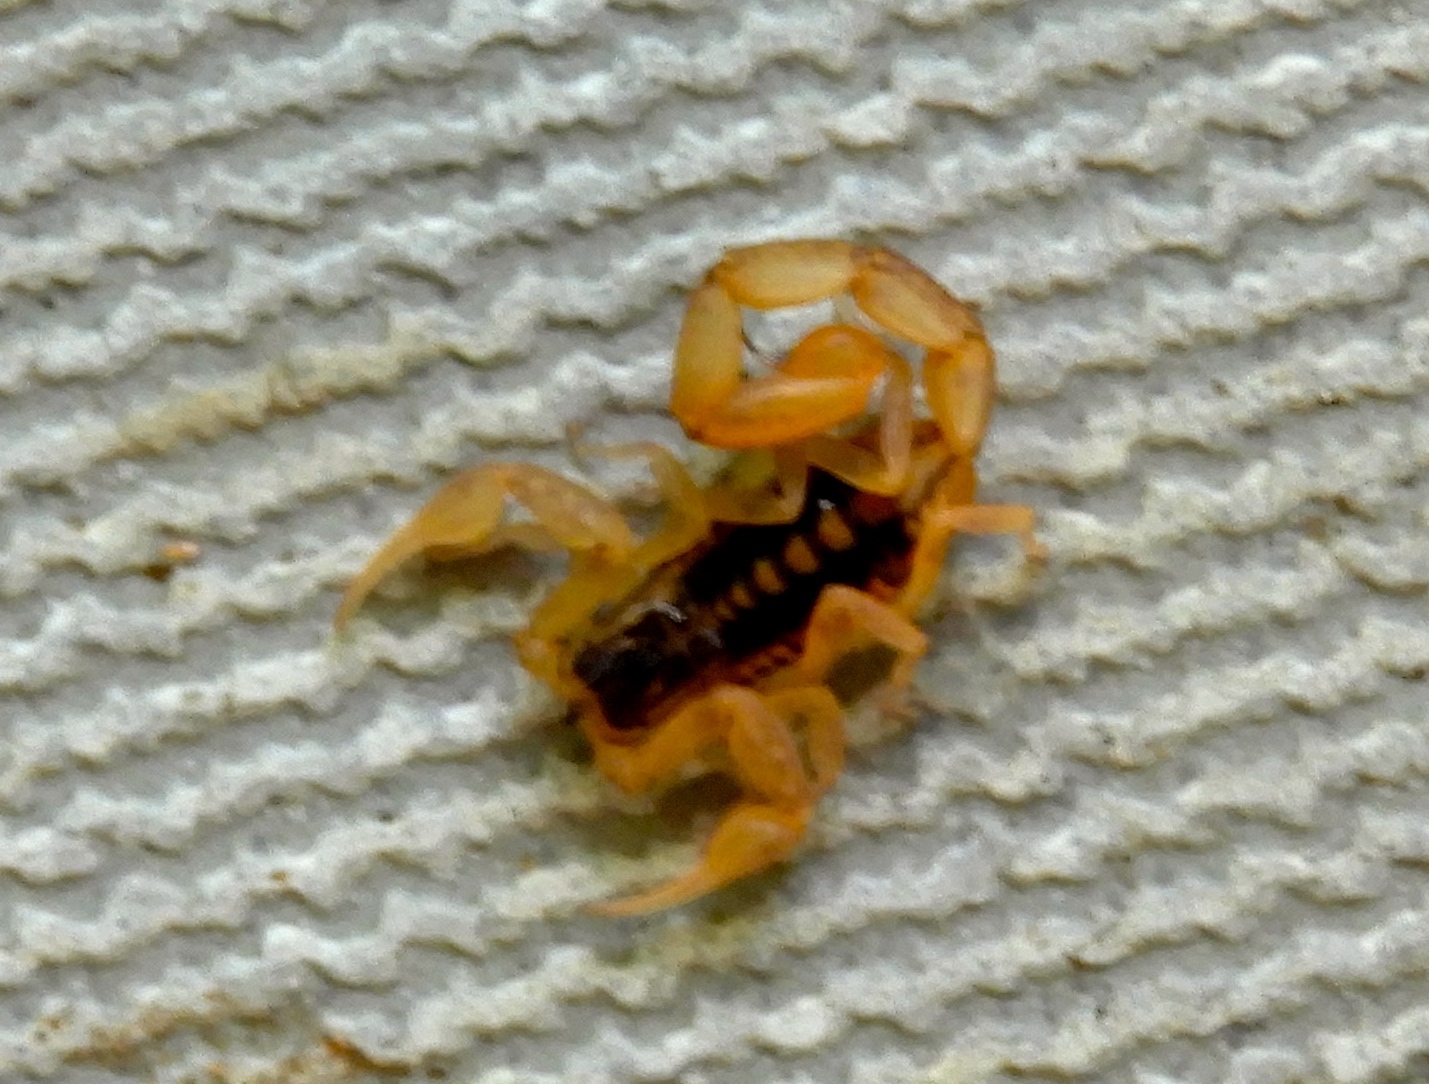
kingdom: Animalia
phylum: Arthropoda
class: Arachnida
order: Scorpiones
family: Buthidae
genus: Centruroides
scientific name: Centruroides baldazoi
